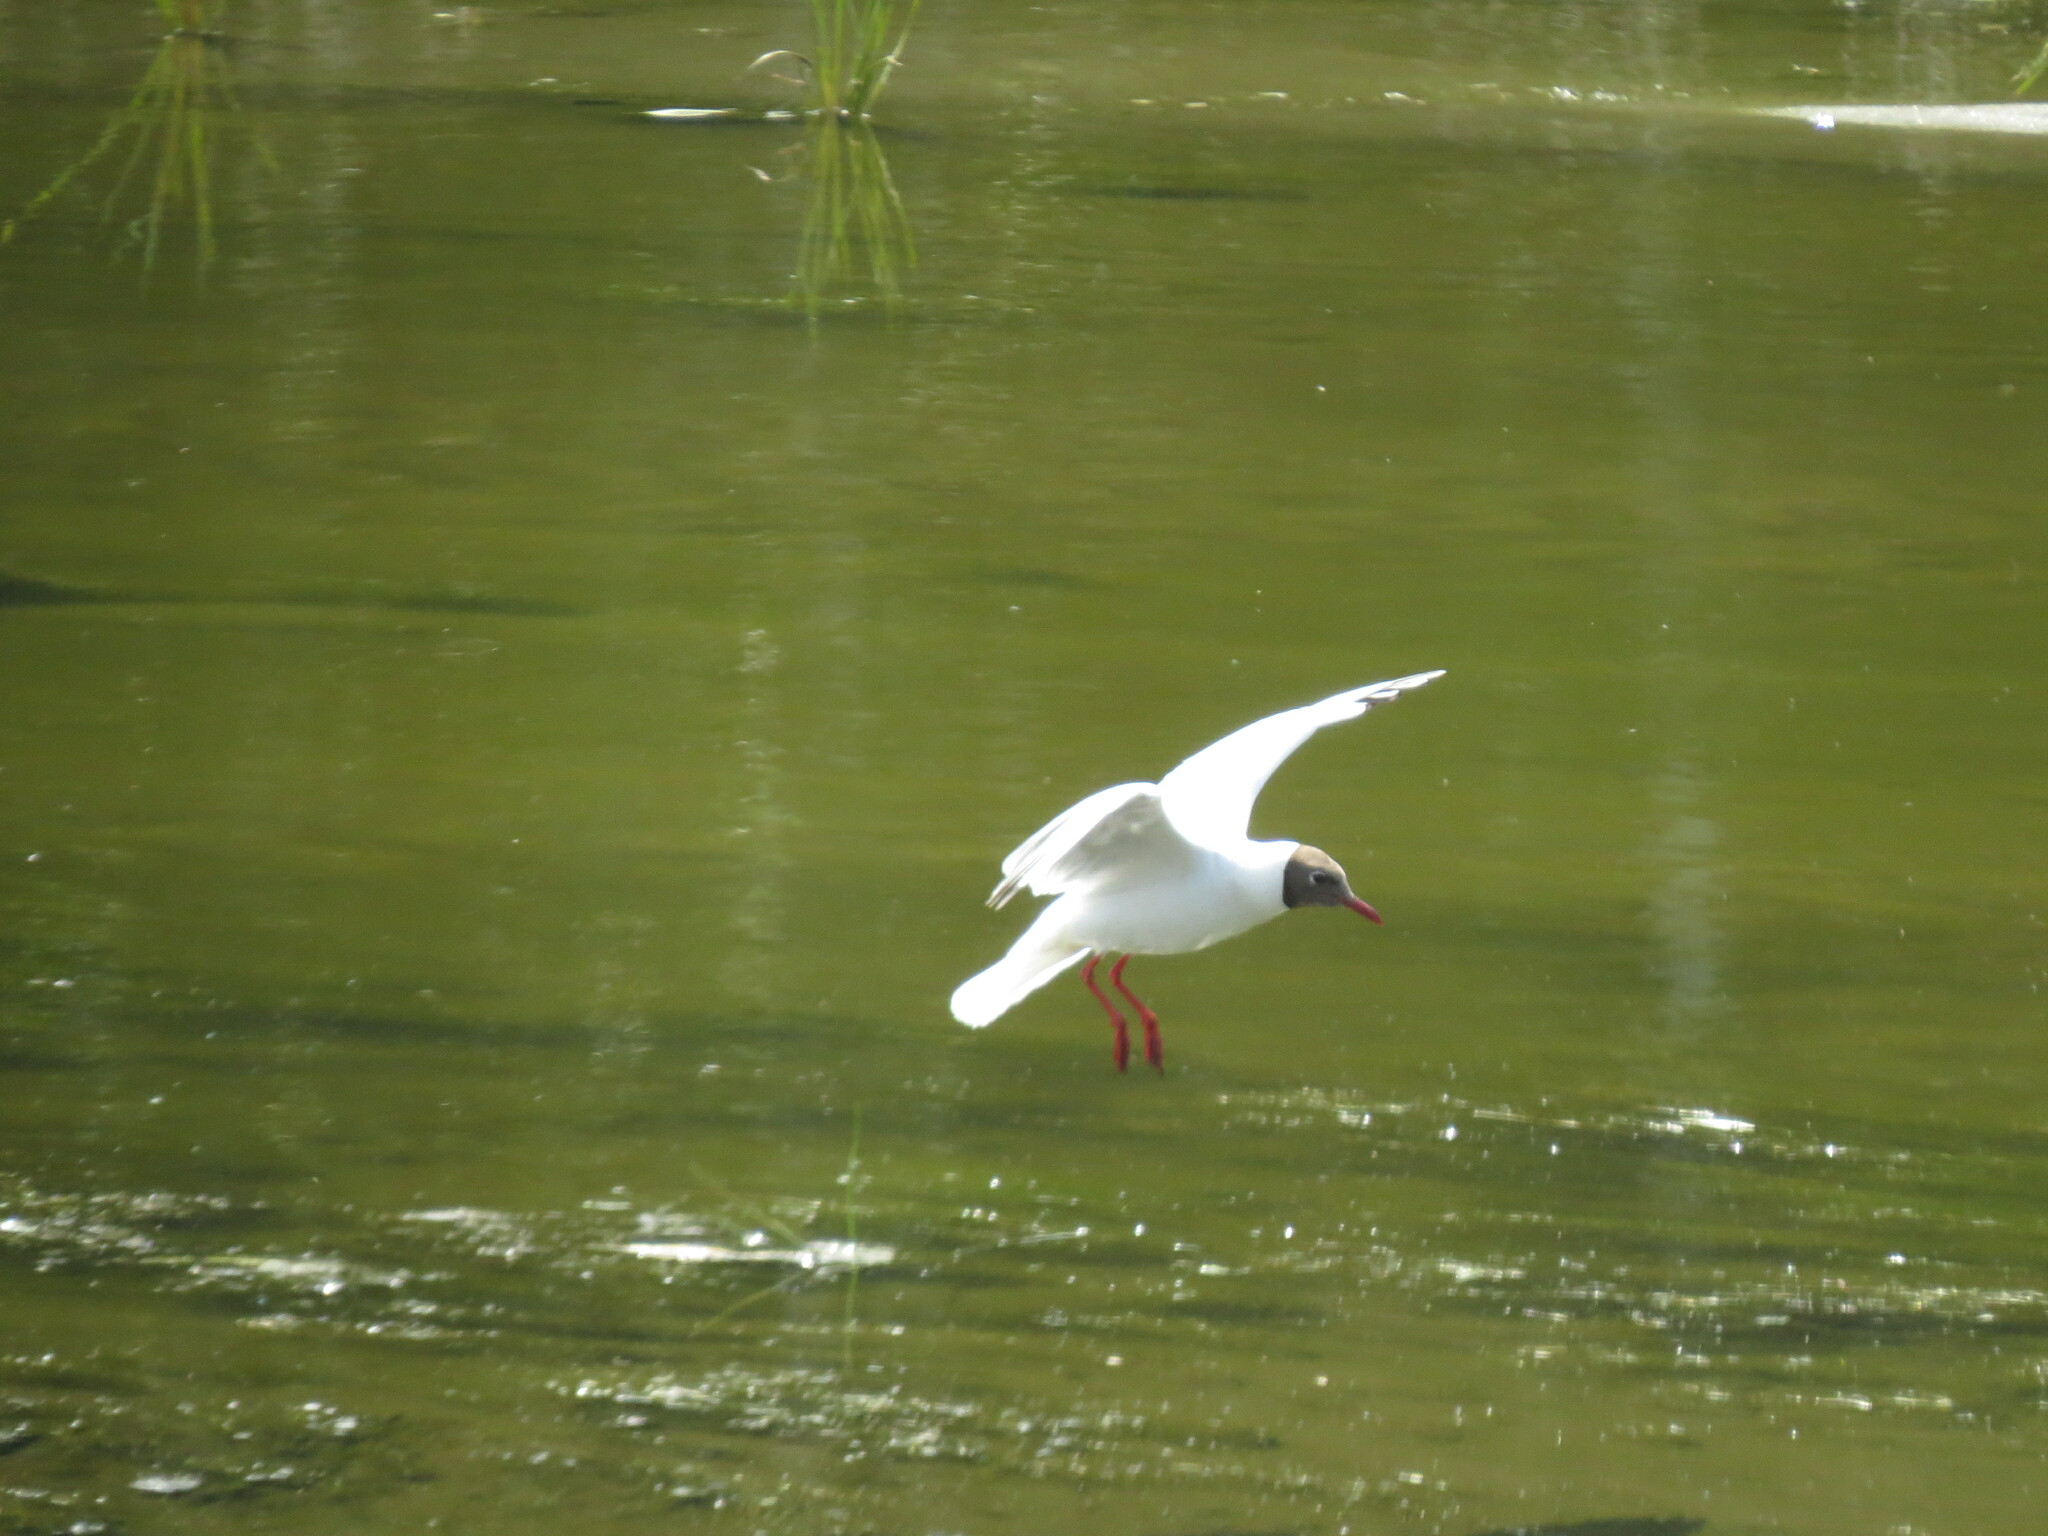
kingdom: Animalia
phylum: Chordata
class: Aves
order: Charadriiformes
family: Laridae
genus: Chroicocephalus
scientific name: Chroicocephalus ridibundus
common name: Black-headed gull
